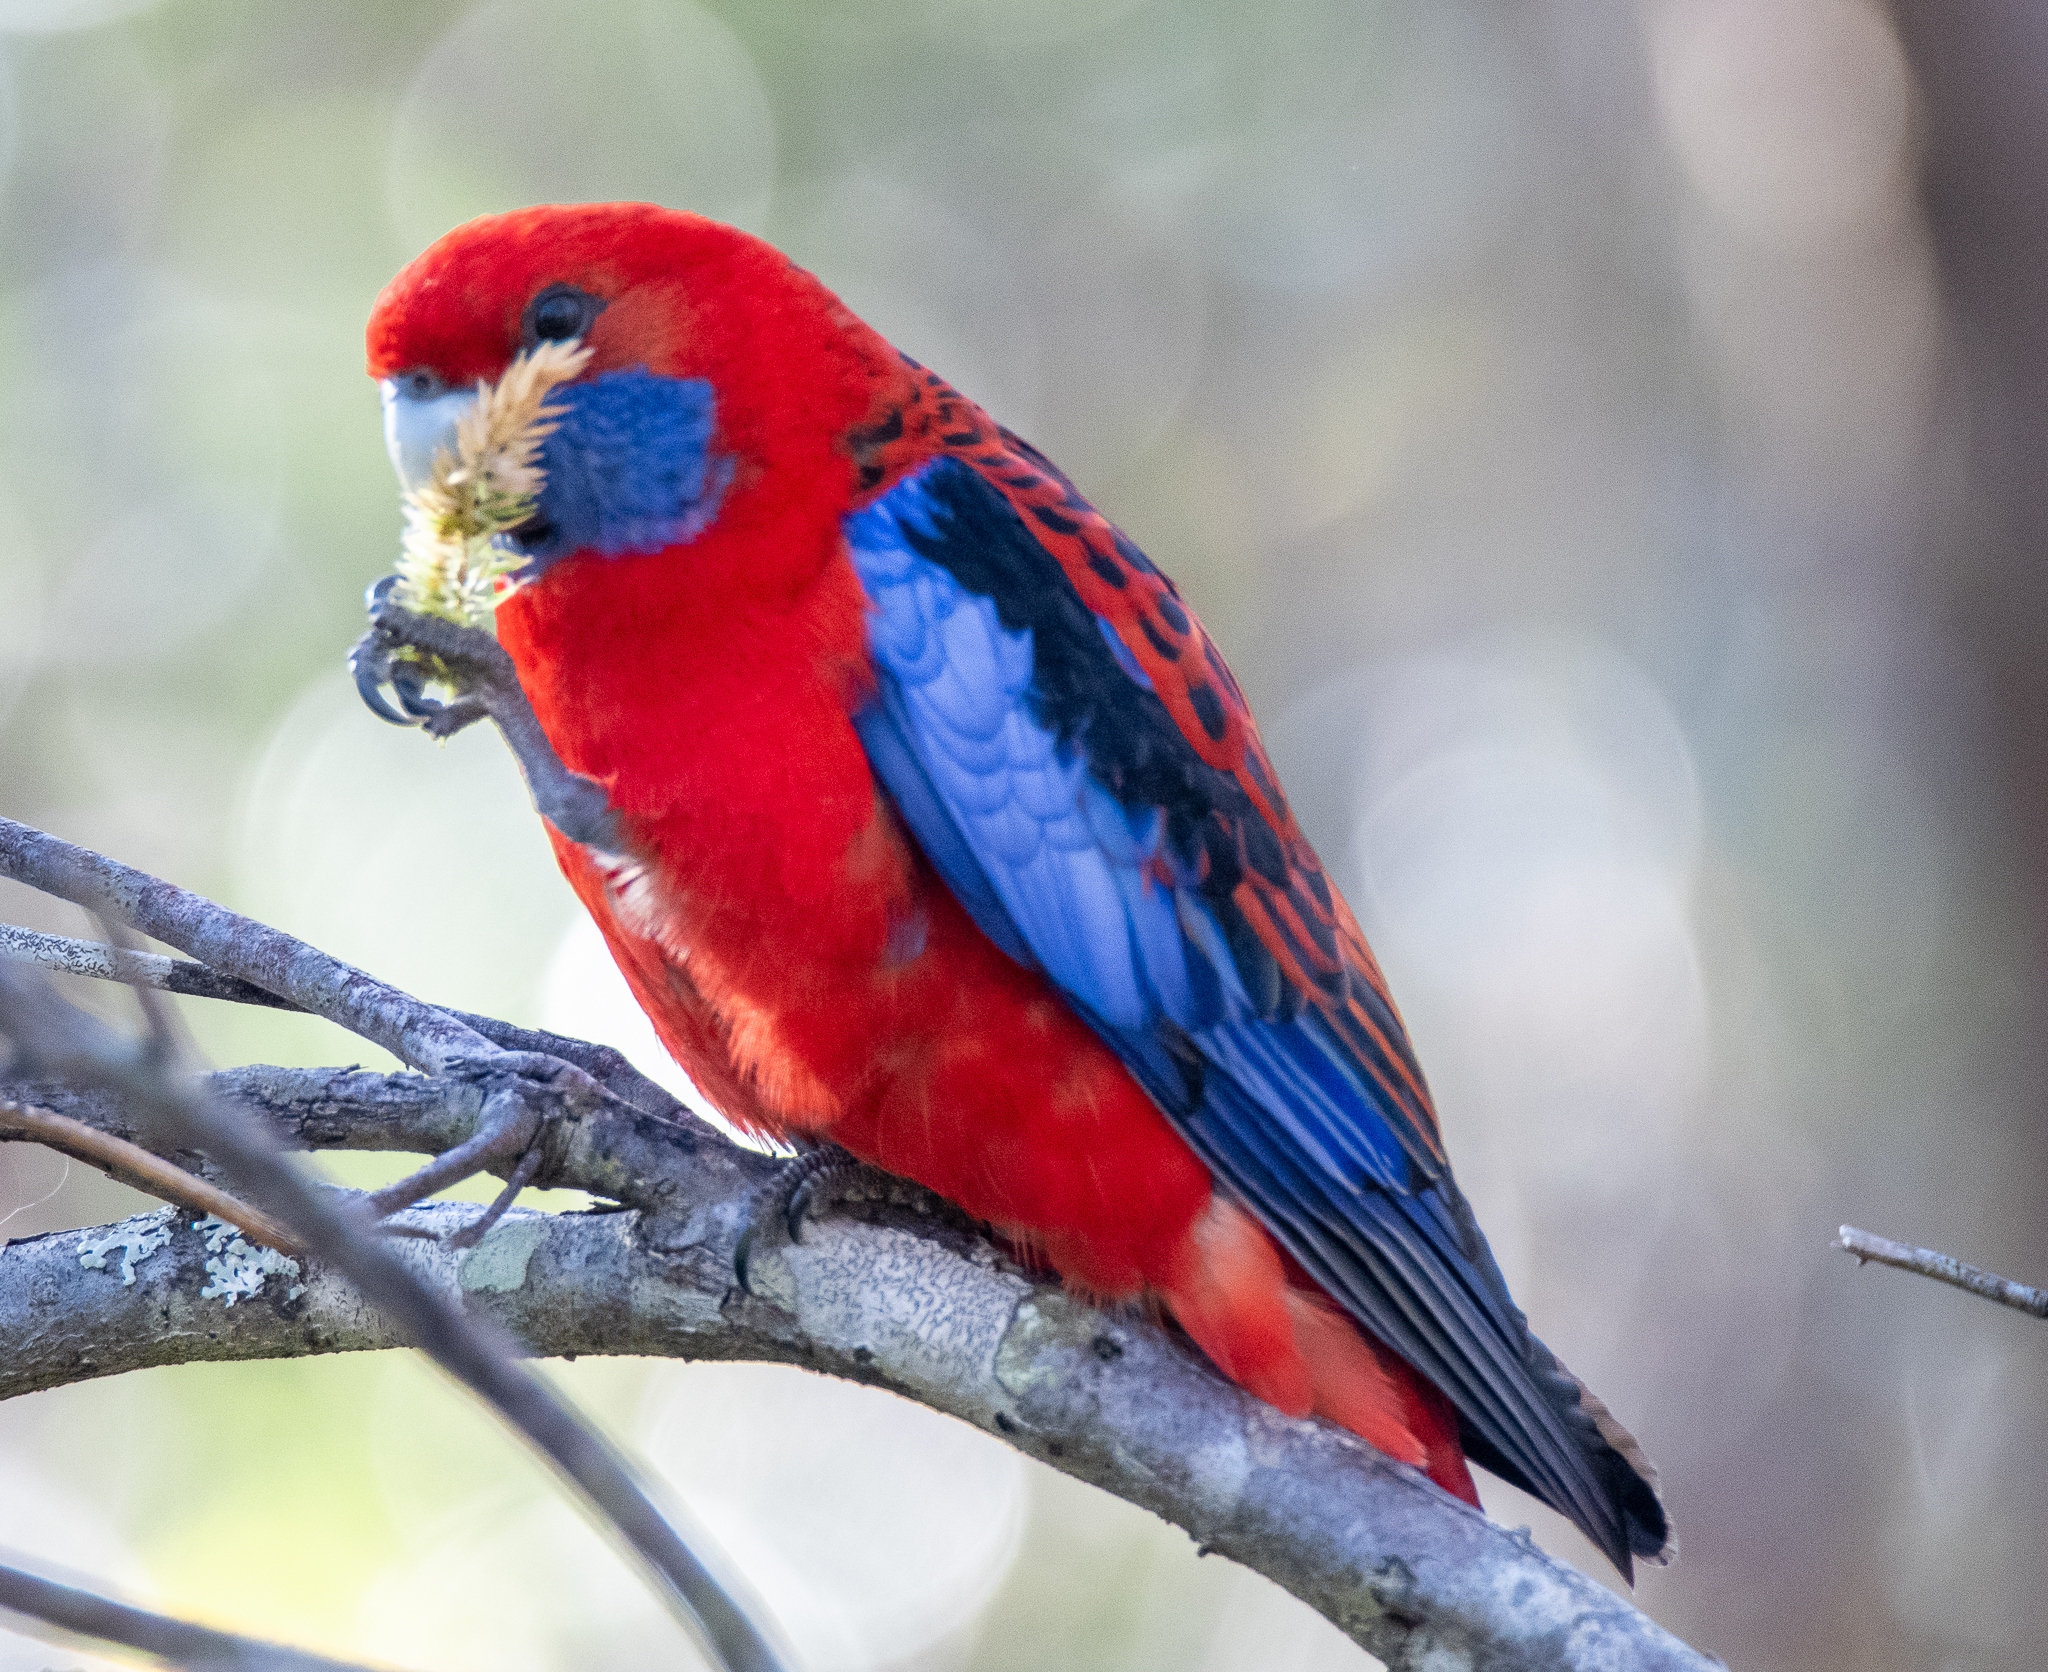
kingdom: Animalia
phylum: Chordata
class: Aves
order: Psittaciformes
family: Psittacidae
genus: Platycercus
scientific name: Platycercus elegans
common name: Crimson rosella
